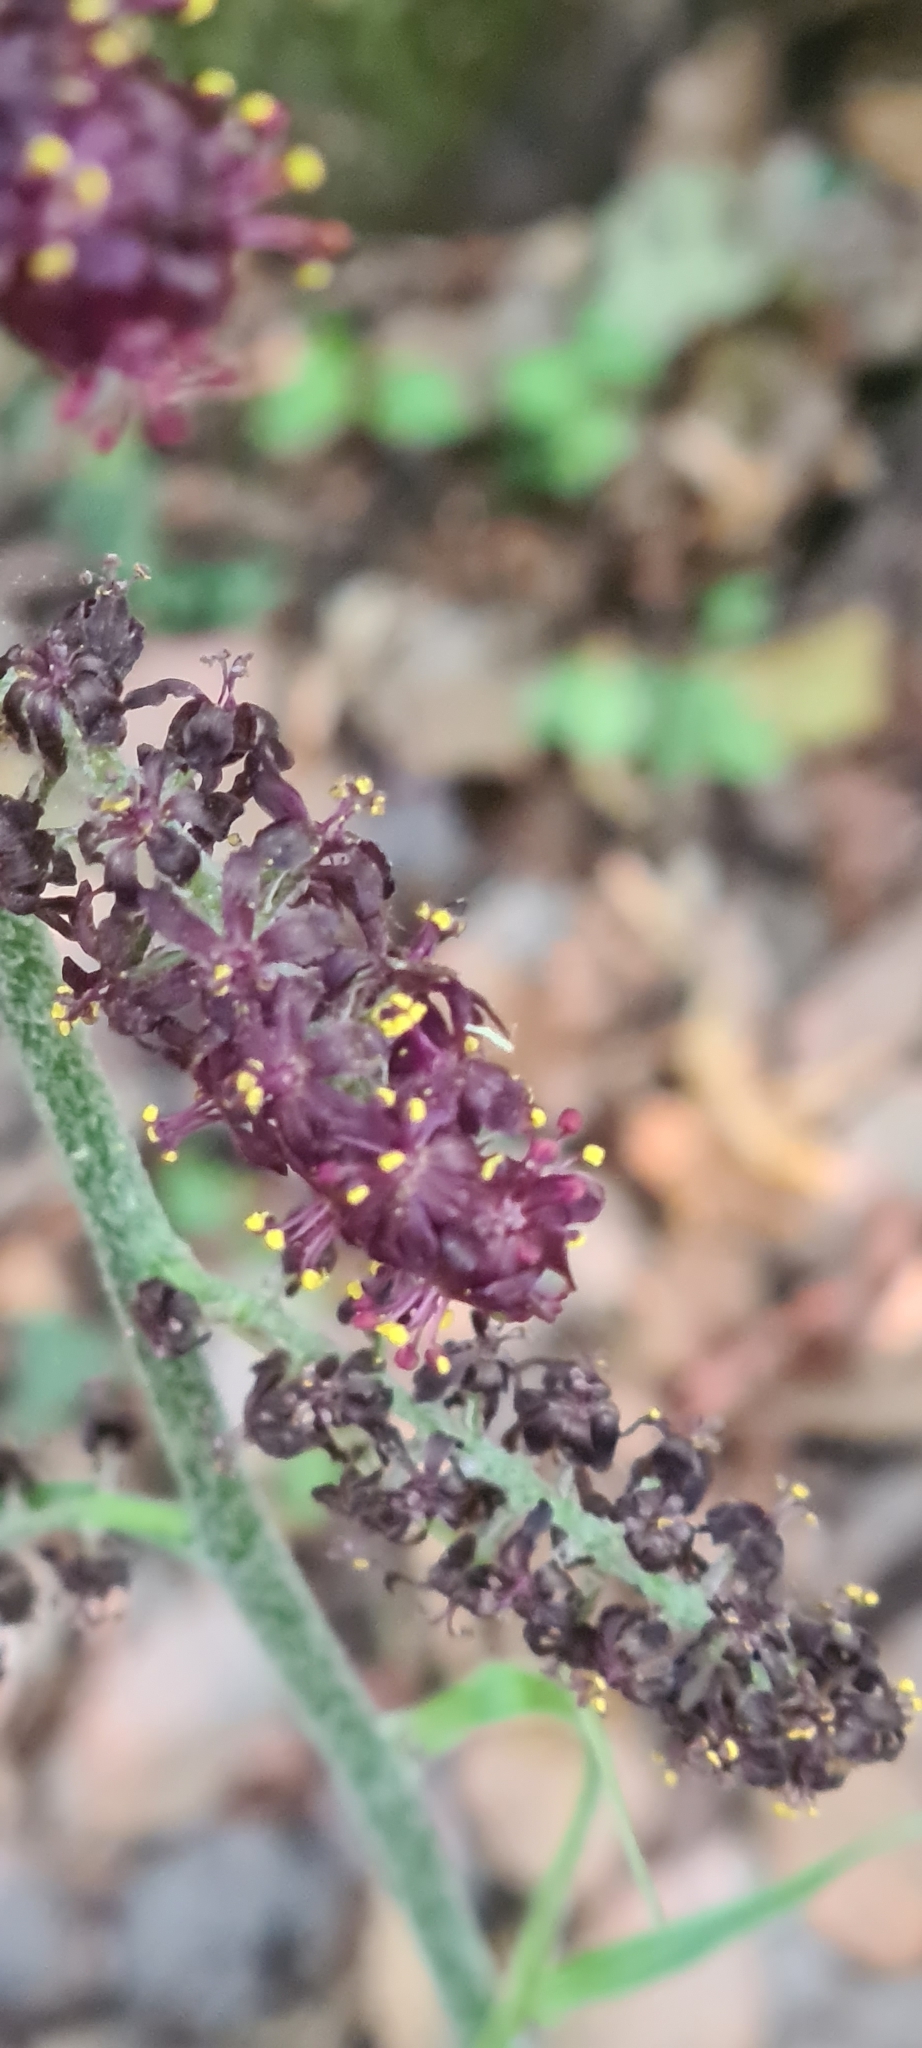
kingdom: Plantae
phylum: Tracheophyta
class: Liliopsida
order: Liliales
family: Melanthiaceae
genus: Veratrum
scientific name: Veratrum nigrum
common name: Black veratrum
